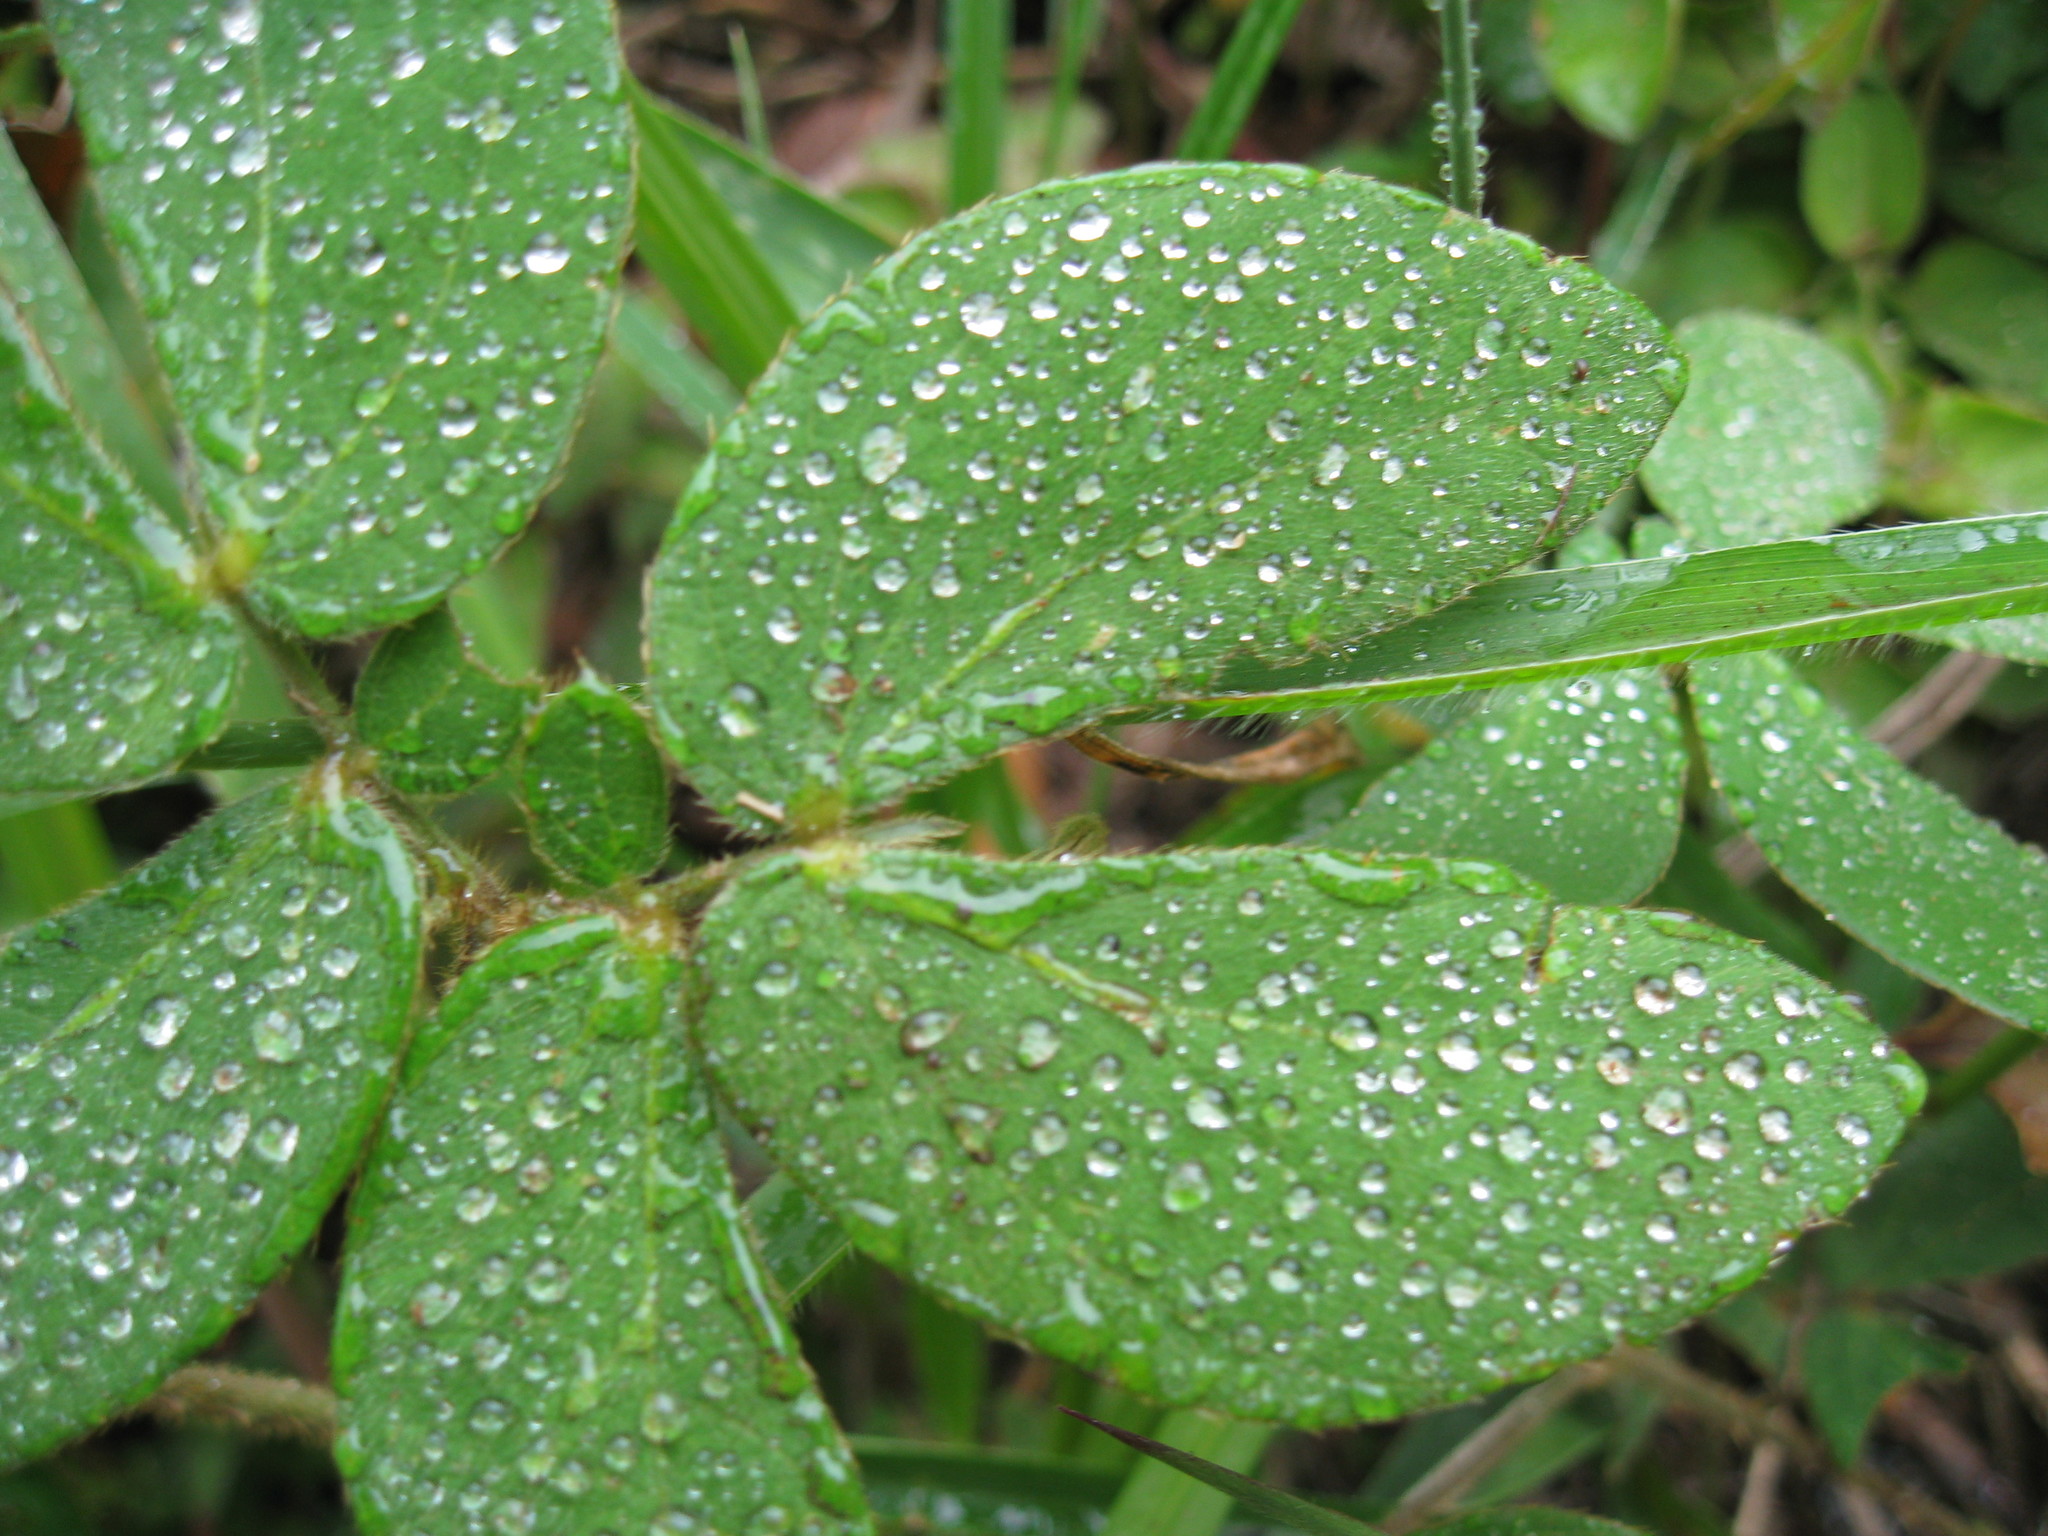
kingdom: Plantae
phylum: Tracheophyta
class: Magnoliopsida
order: Fabales
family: Fabaceae
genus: Mimosa
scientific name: Mimosa albida
